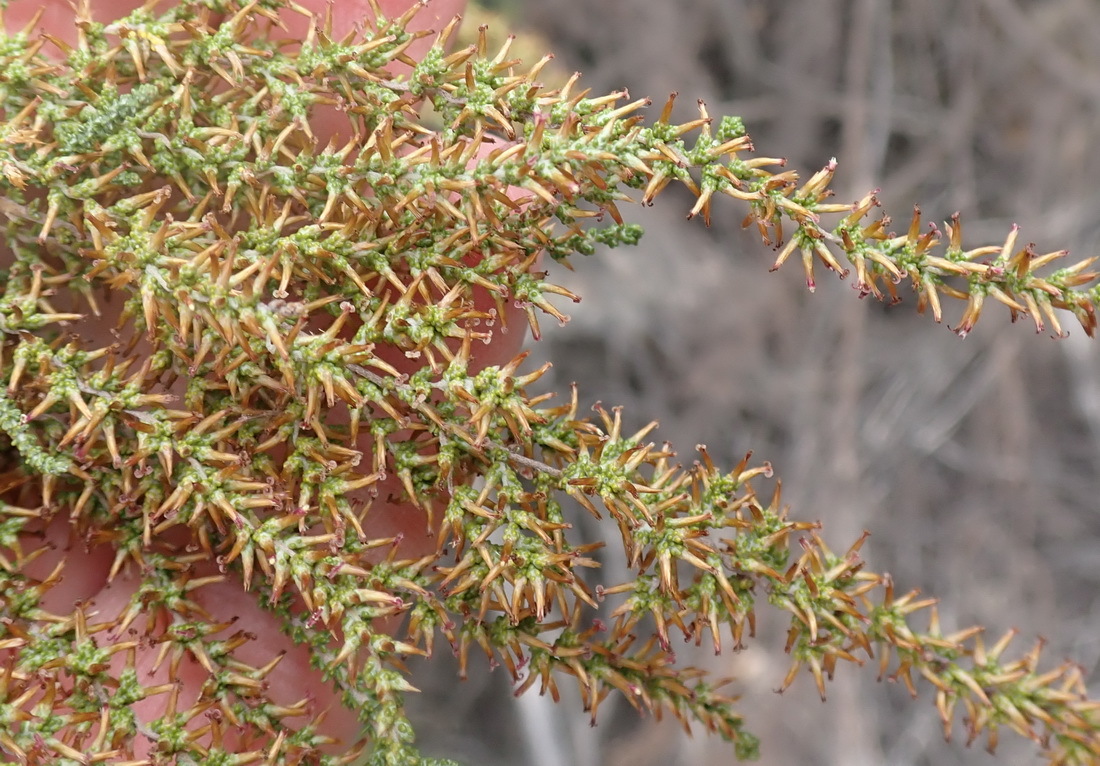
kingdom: Plantae
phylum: Tracheophyta
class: Magnoliopsida
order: Asterales
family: Asteraceae
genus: Seriphium
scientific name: Seriphium
